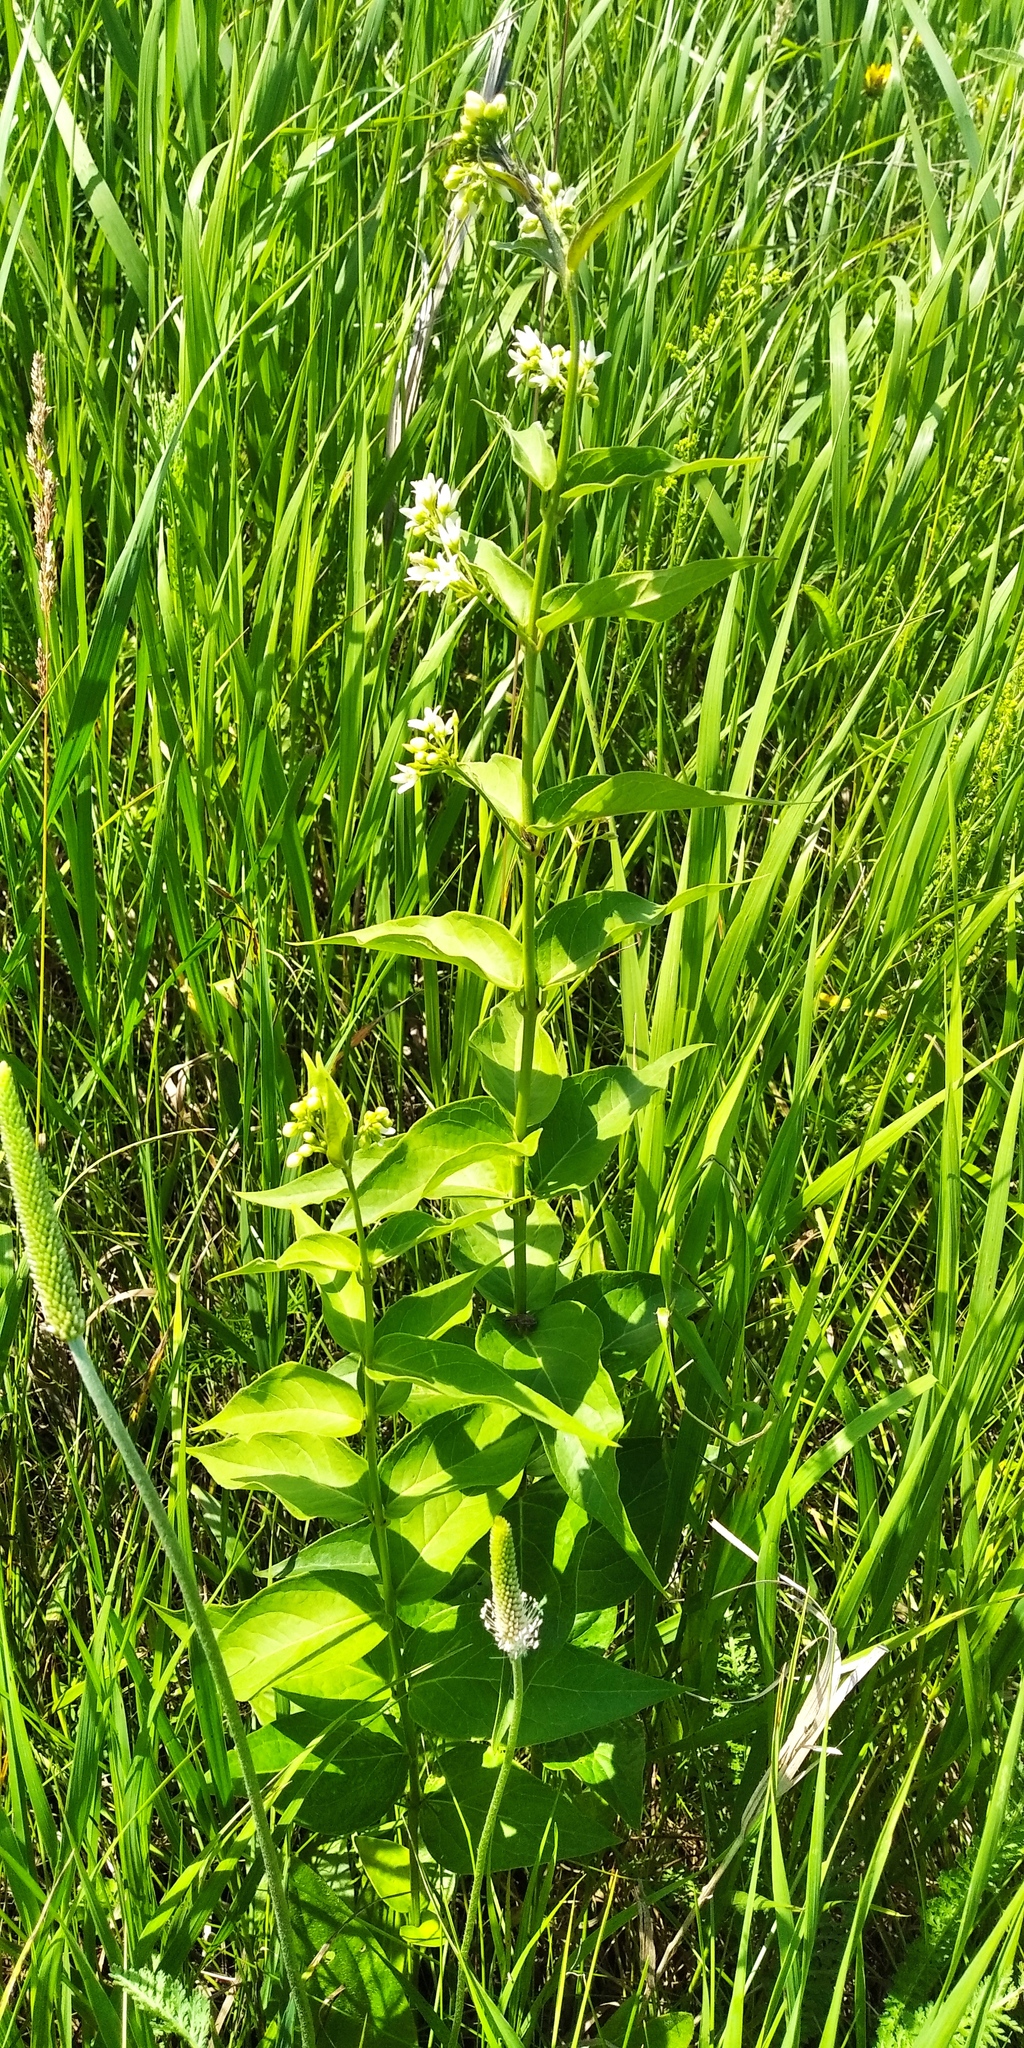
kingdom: Plantae
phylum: Tracheophyta
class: Magnoliopsida
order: Gentianales
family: Apocynaceae
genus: Vincetoxicum
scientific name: Vincetoxicum hirundinaria
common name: White swallowwort
